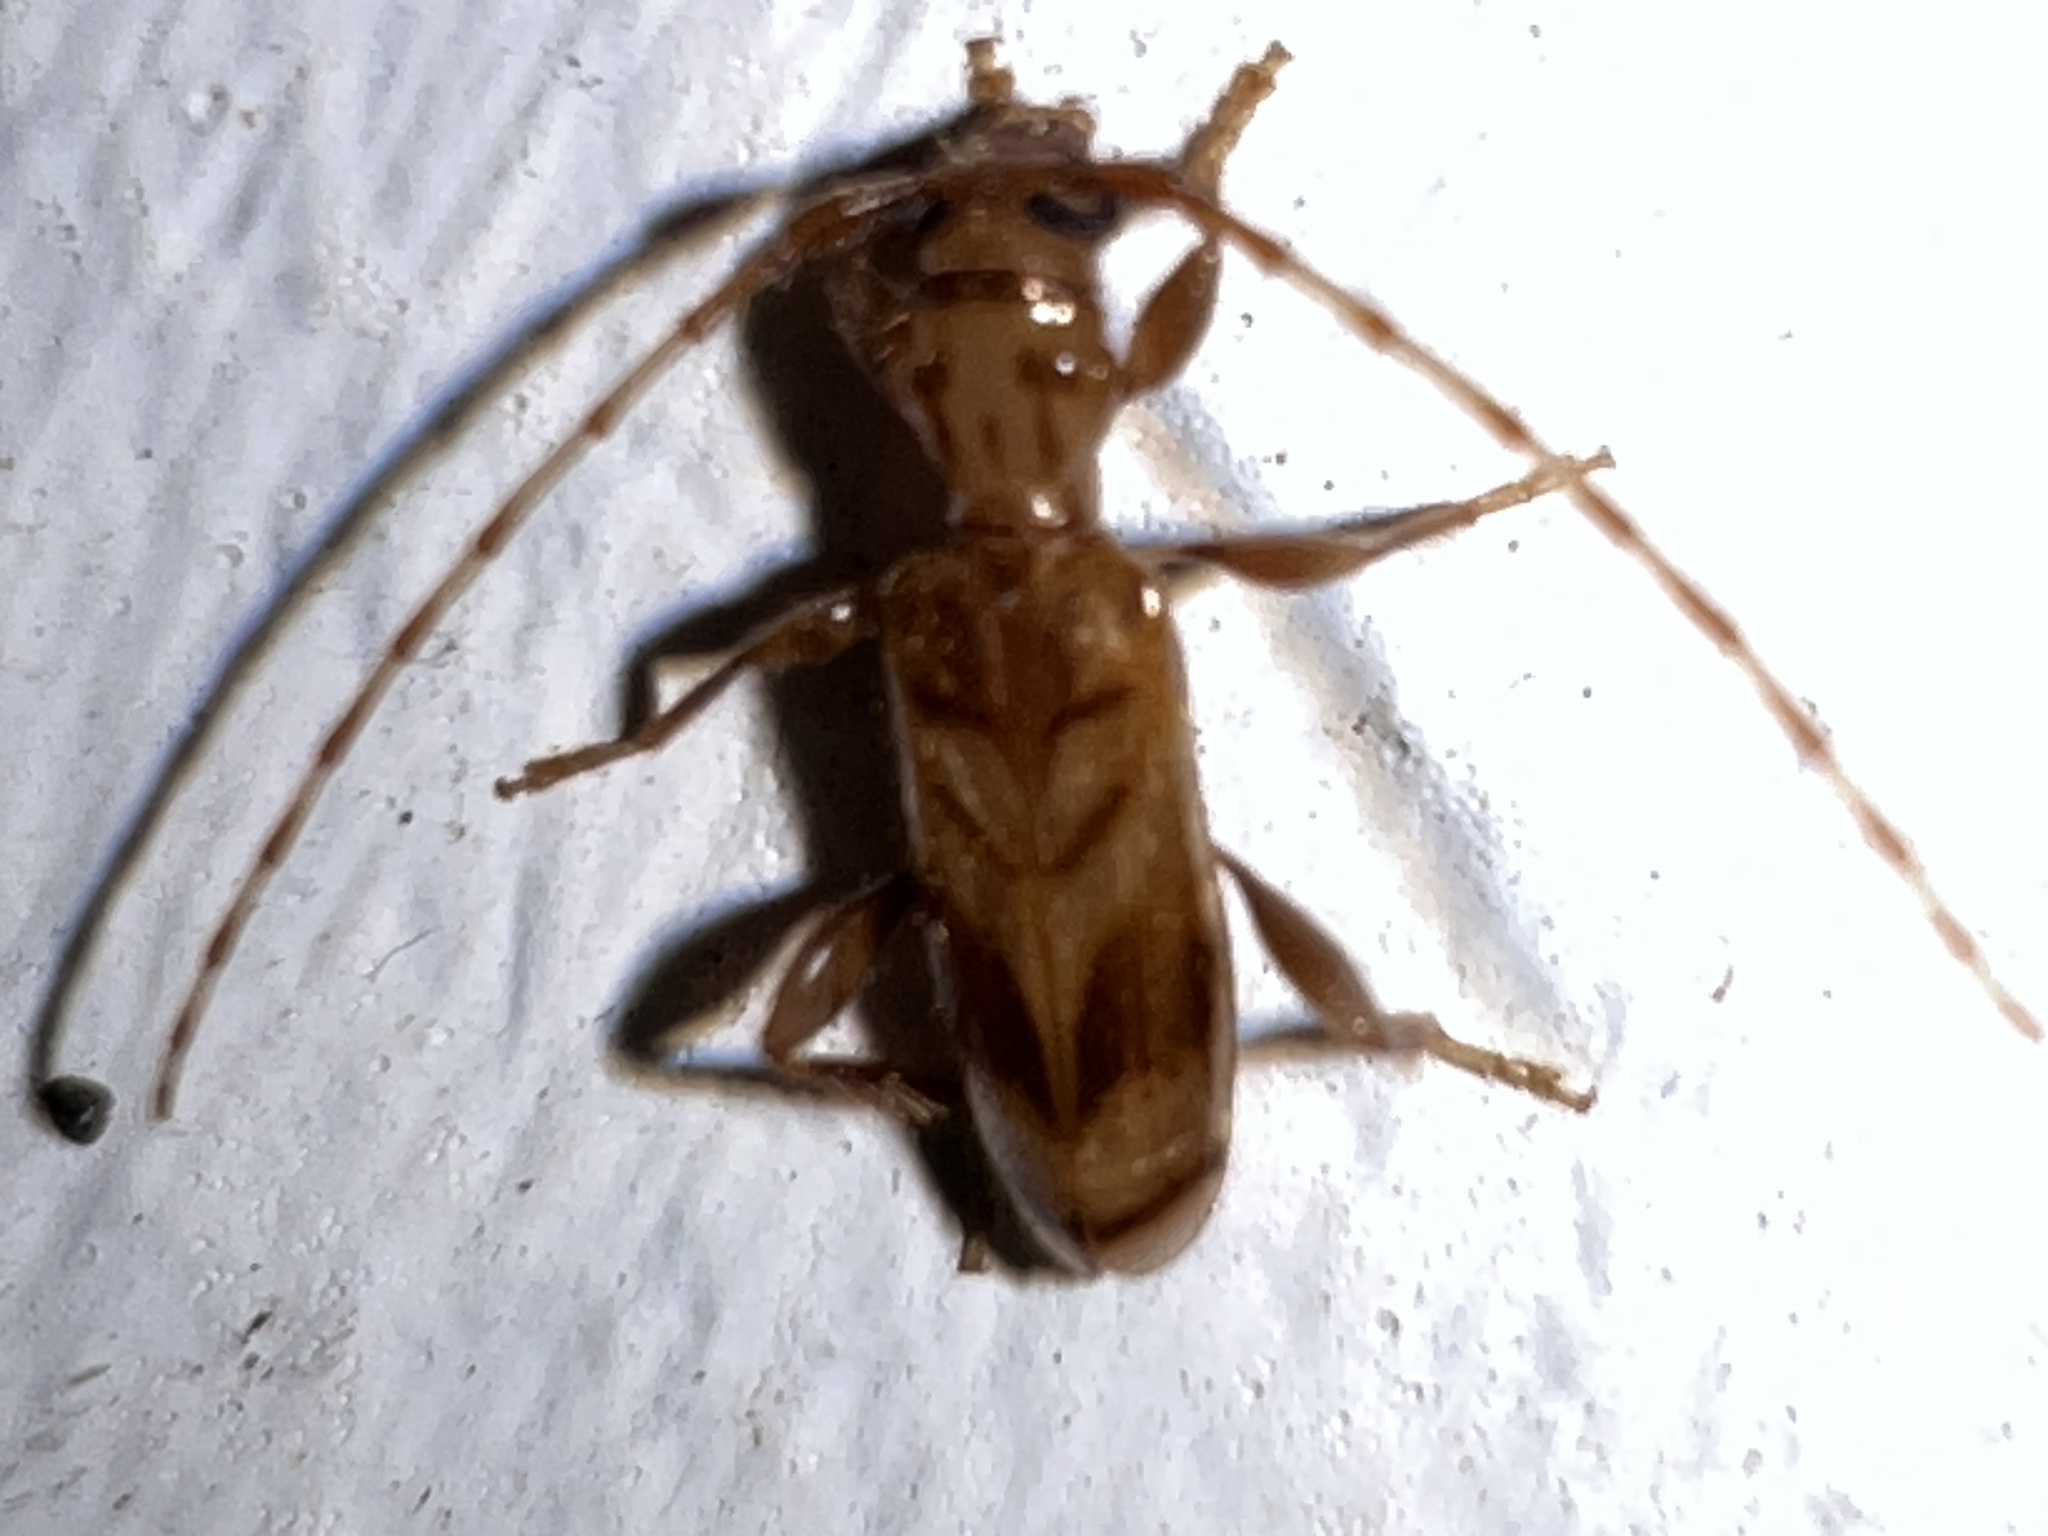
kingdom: Animalia
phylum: Arthropoda
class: Insecta
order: Coleoptera
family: Cerambycidae
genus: Obrium
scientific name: Obrium maculatum
